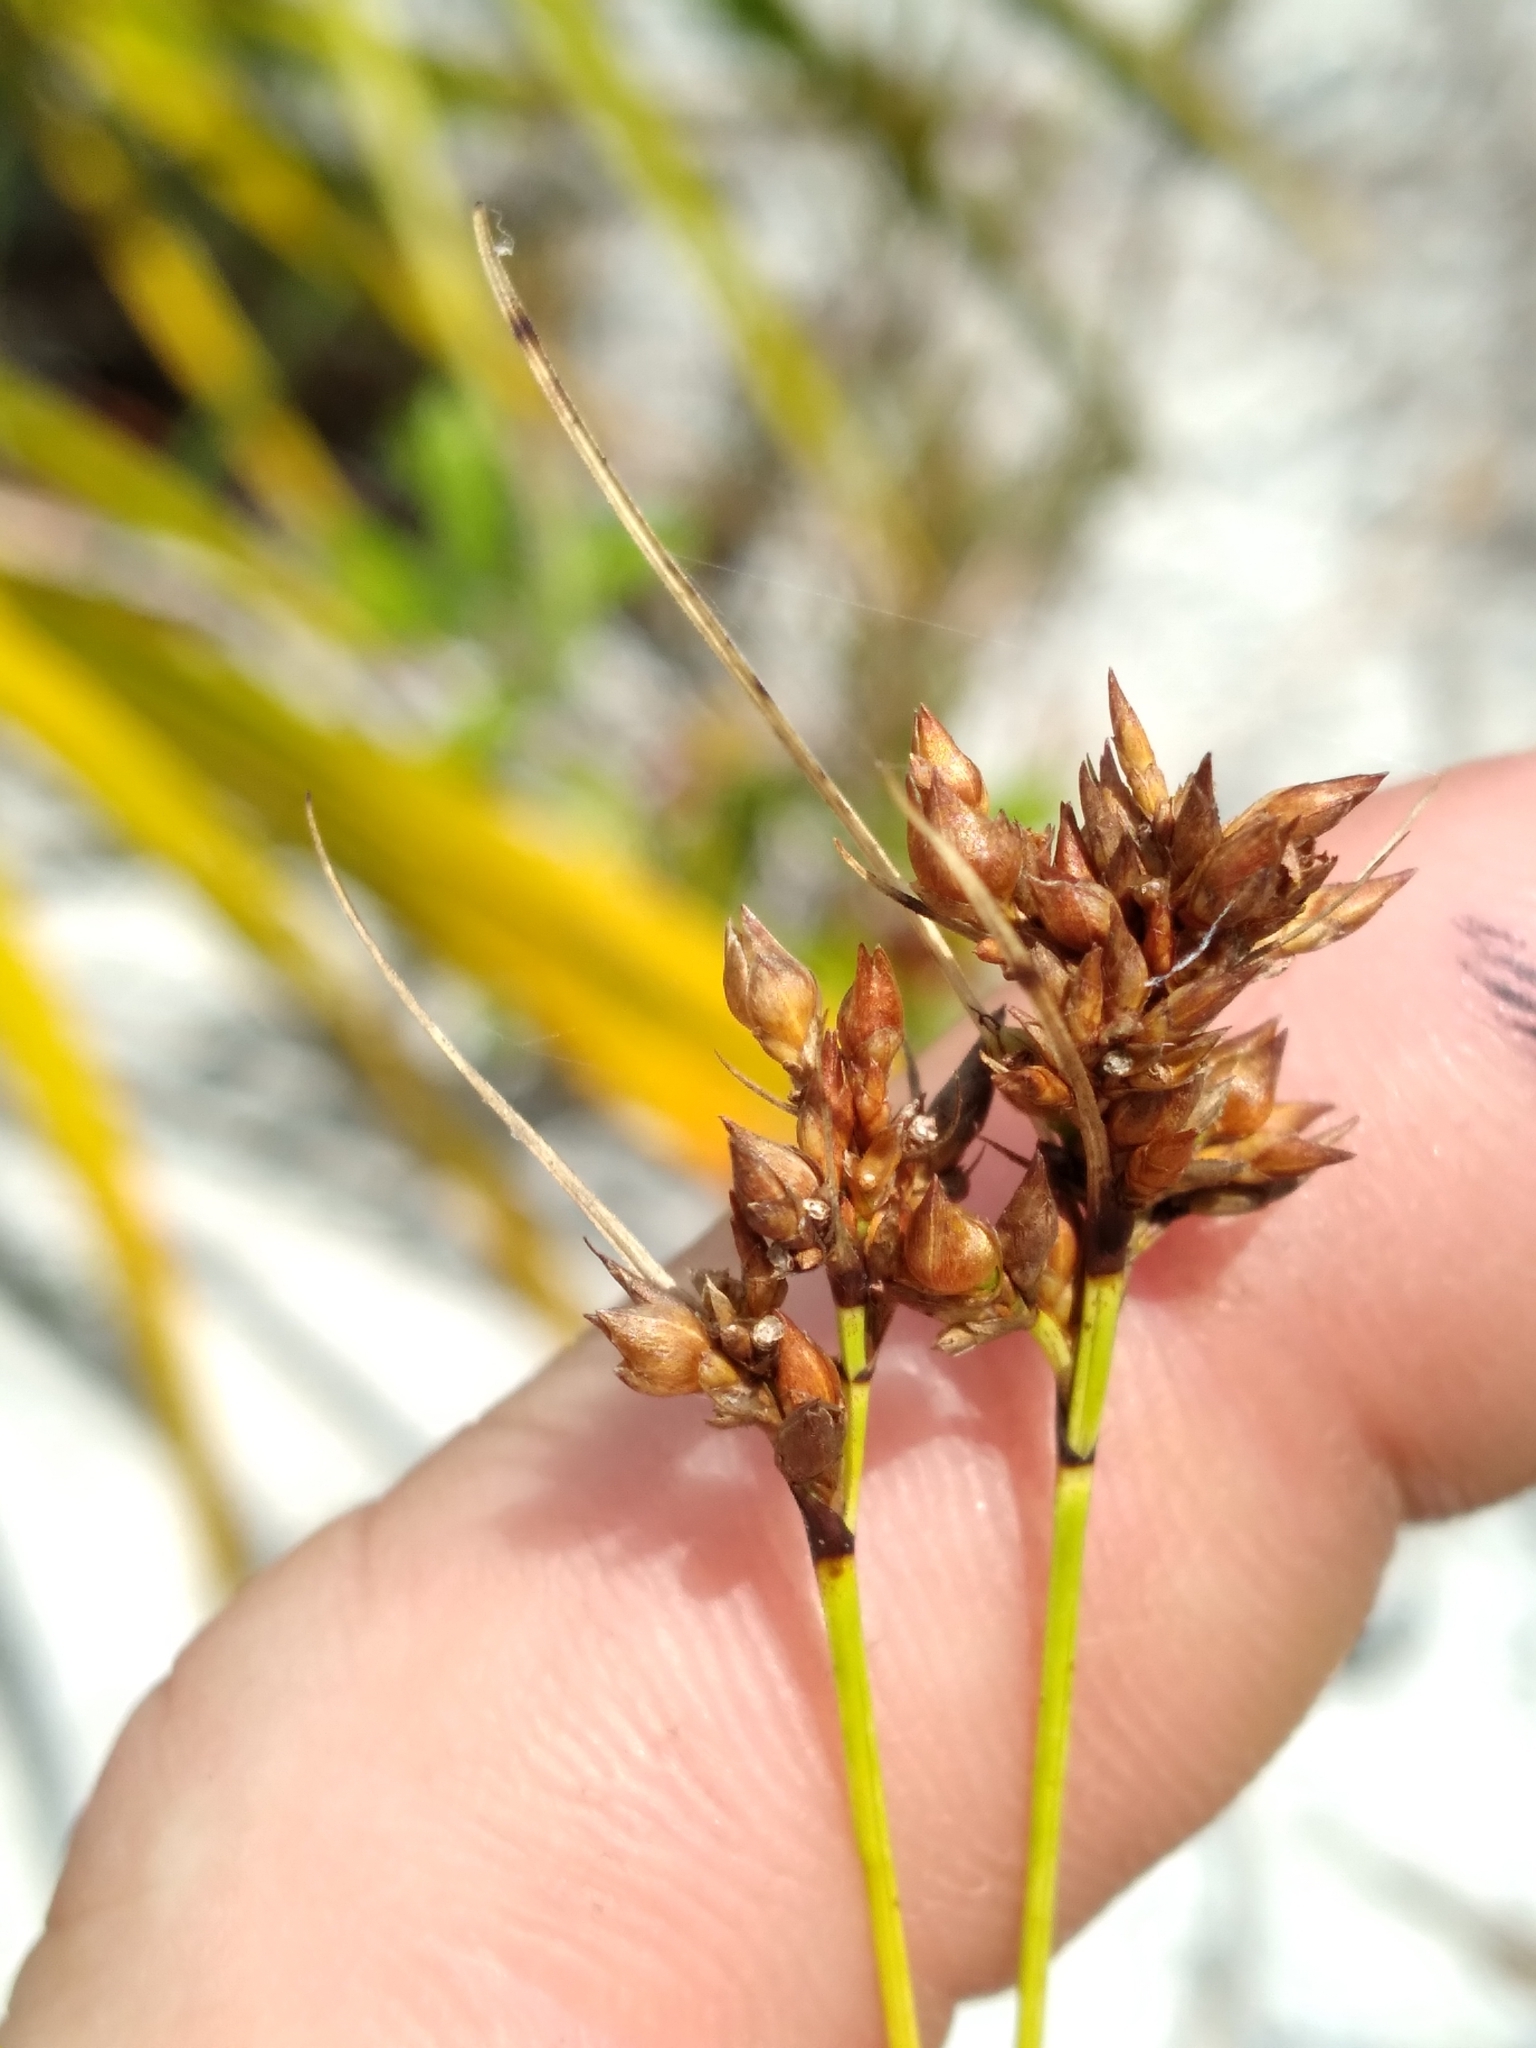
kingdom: Plantae
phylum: Tracheophyta
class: Liliopsida
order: Poales
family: Cyperaceae
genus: Rhynchospora
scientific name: Rhynchospora intermedia
